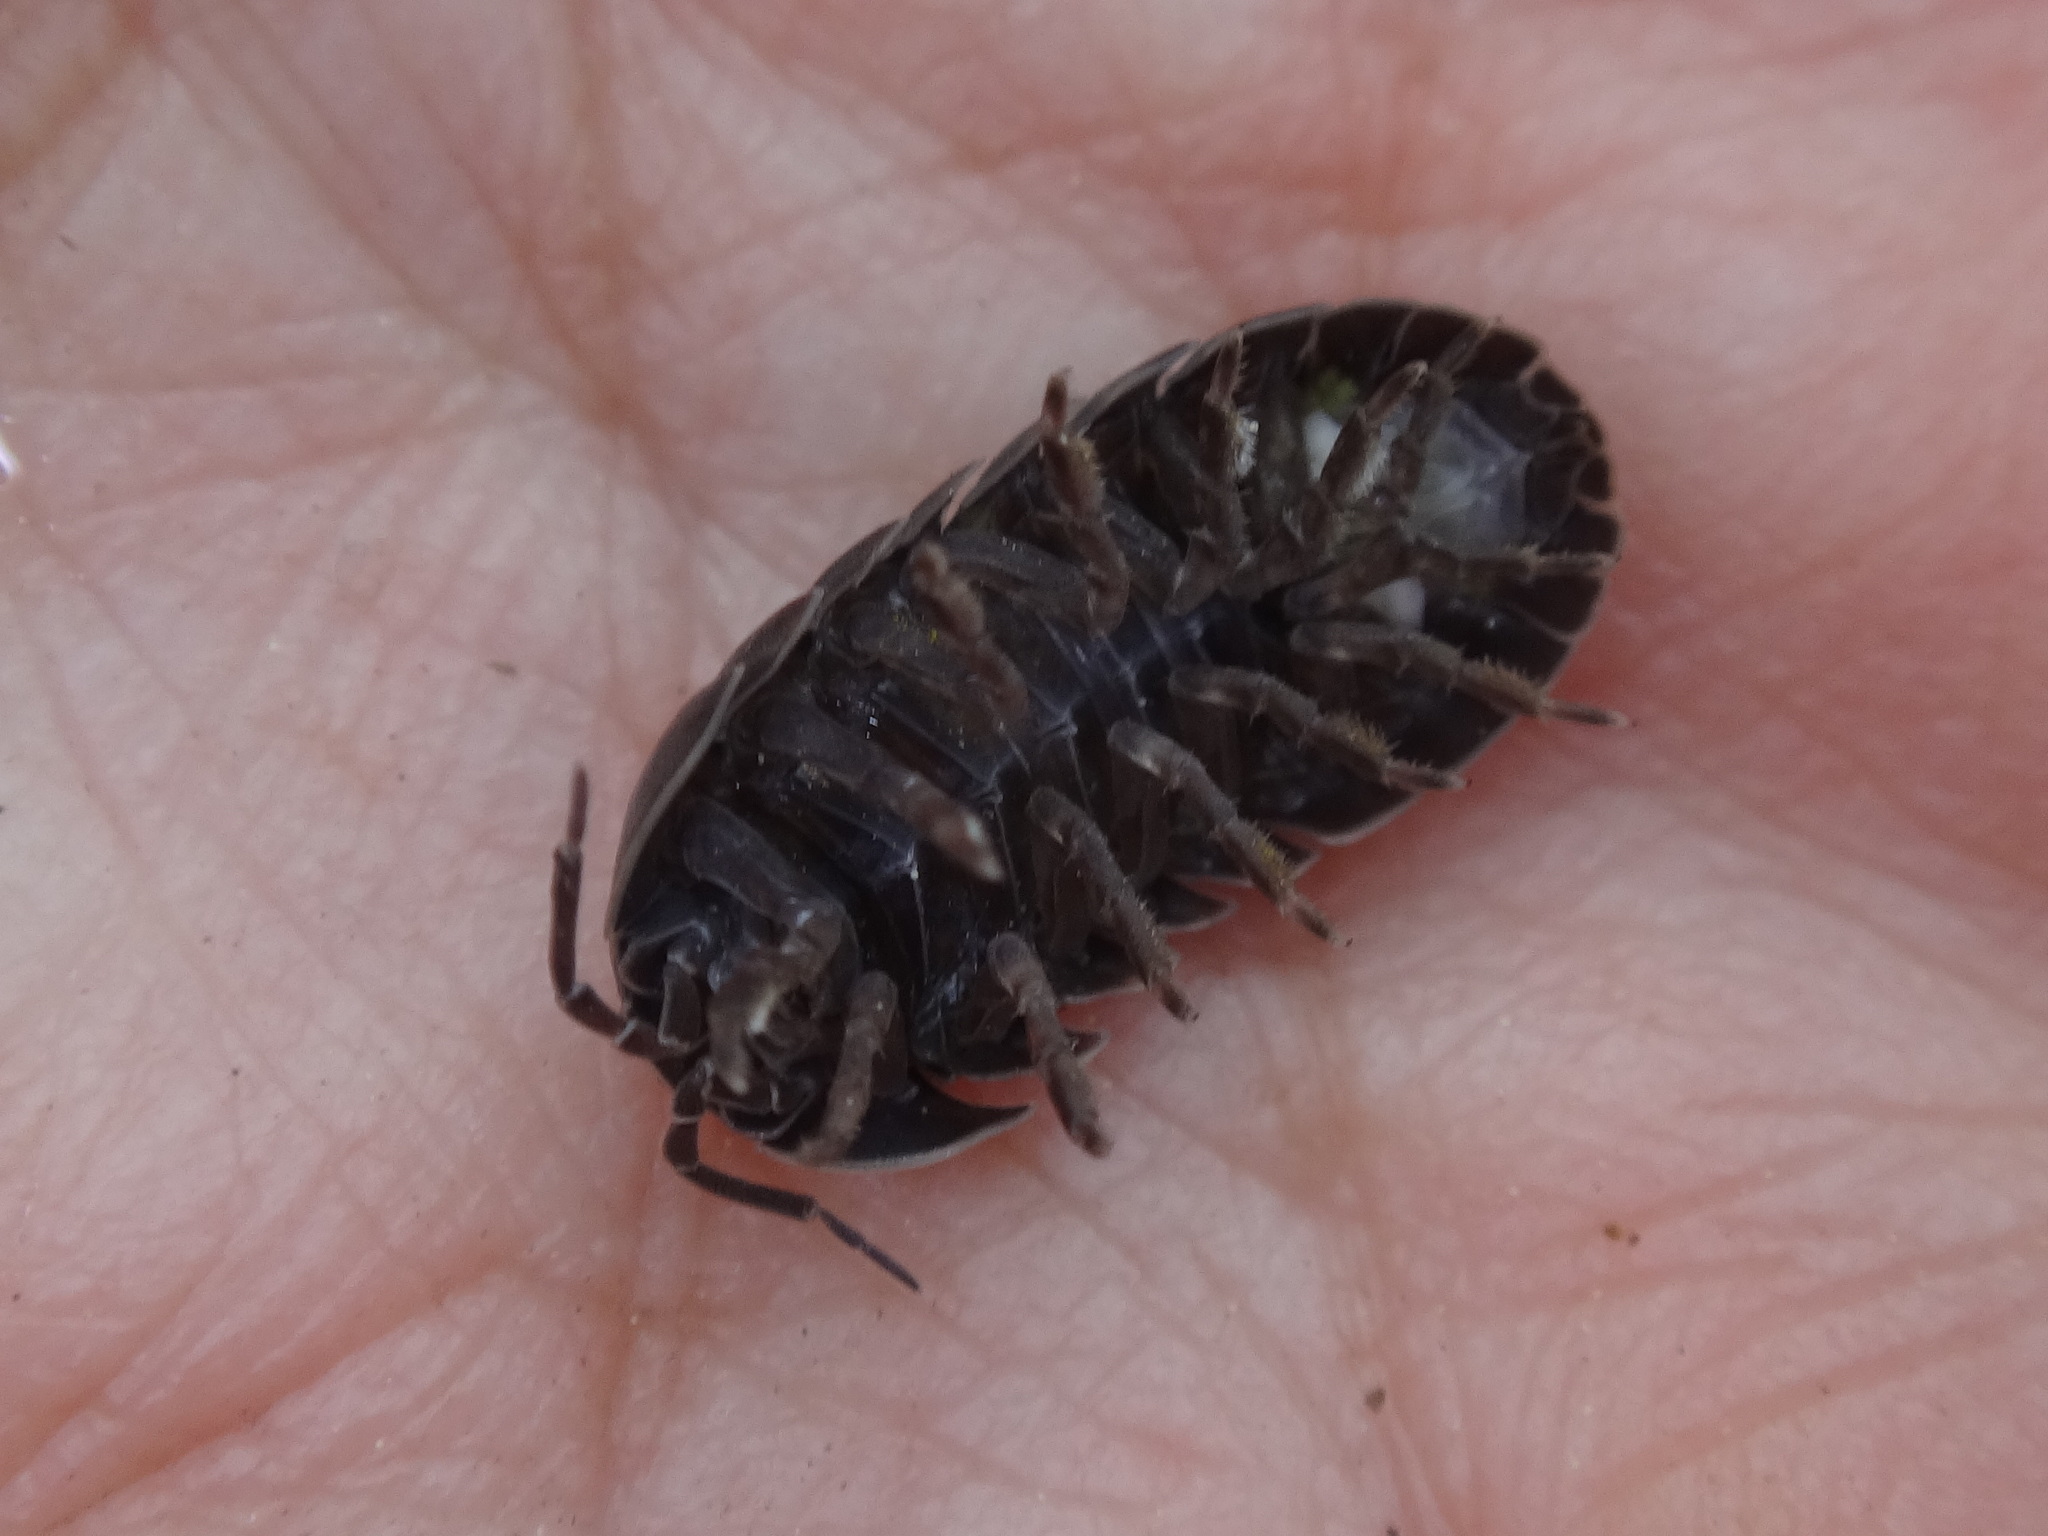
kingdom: Animalia
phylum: Arthropoda
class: Malacostraca
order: Isopoda
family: Armadillidiidae
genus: Armadillidium
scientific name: Armadillidium vulgare
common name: Common pill woodlouse
